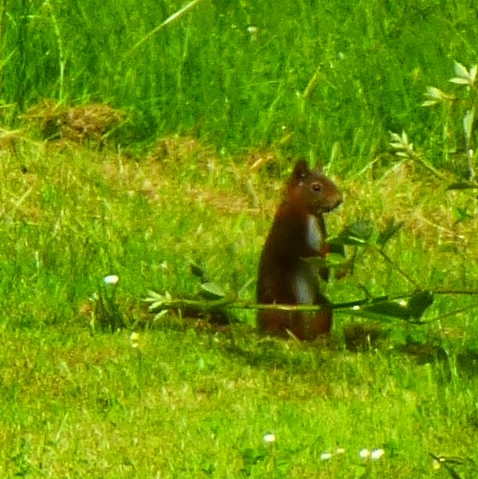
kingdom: Animalia
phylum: Chordata
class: Mammalia
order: Rodentia
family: Sciuridae
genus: Sciurus
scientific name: Sciurus vulgaris
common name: Eurasian red squirrel
